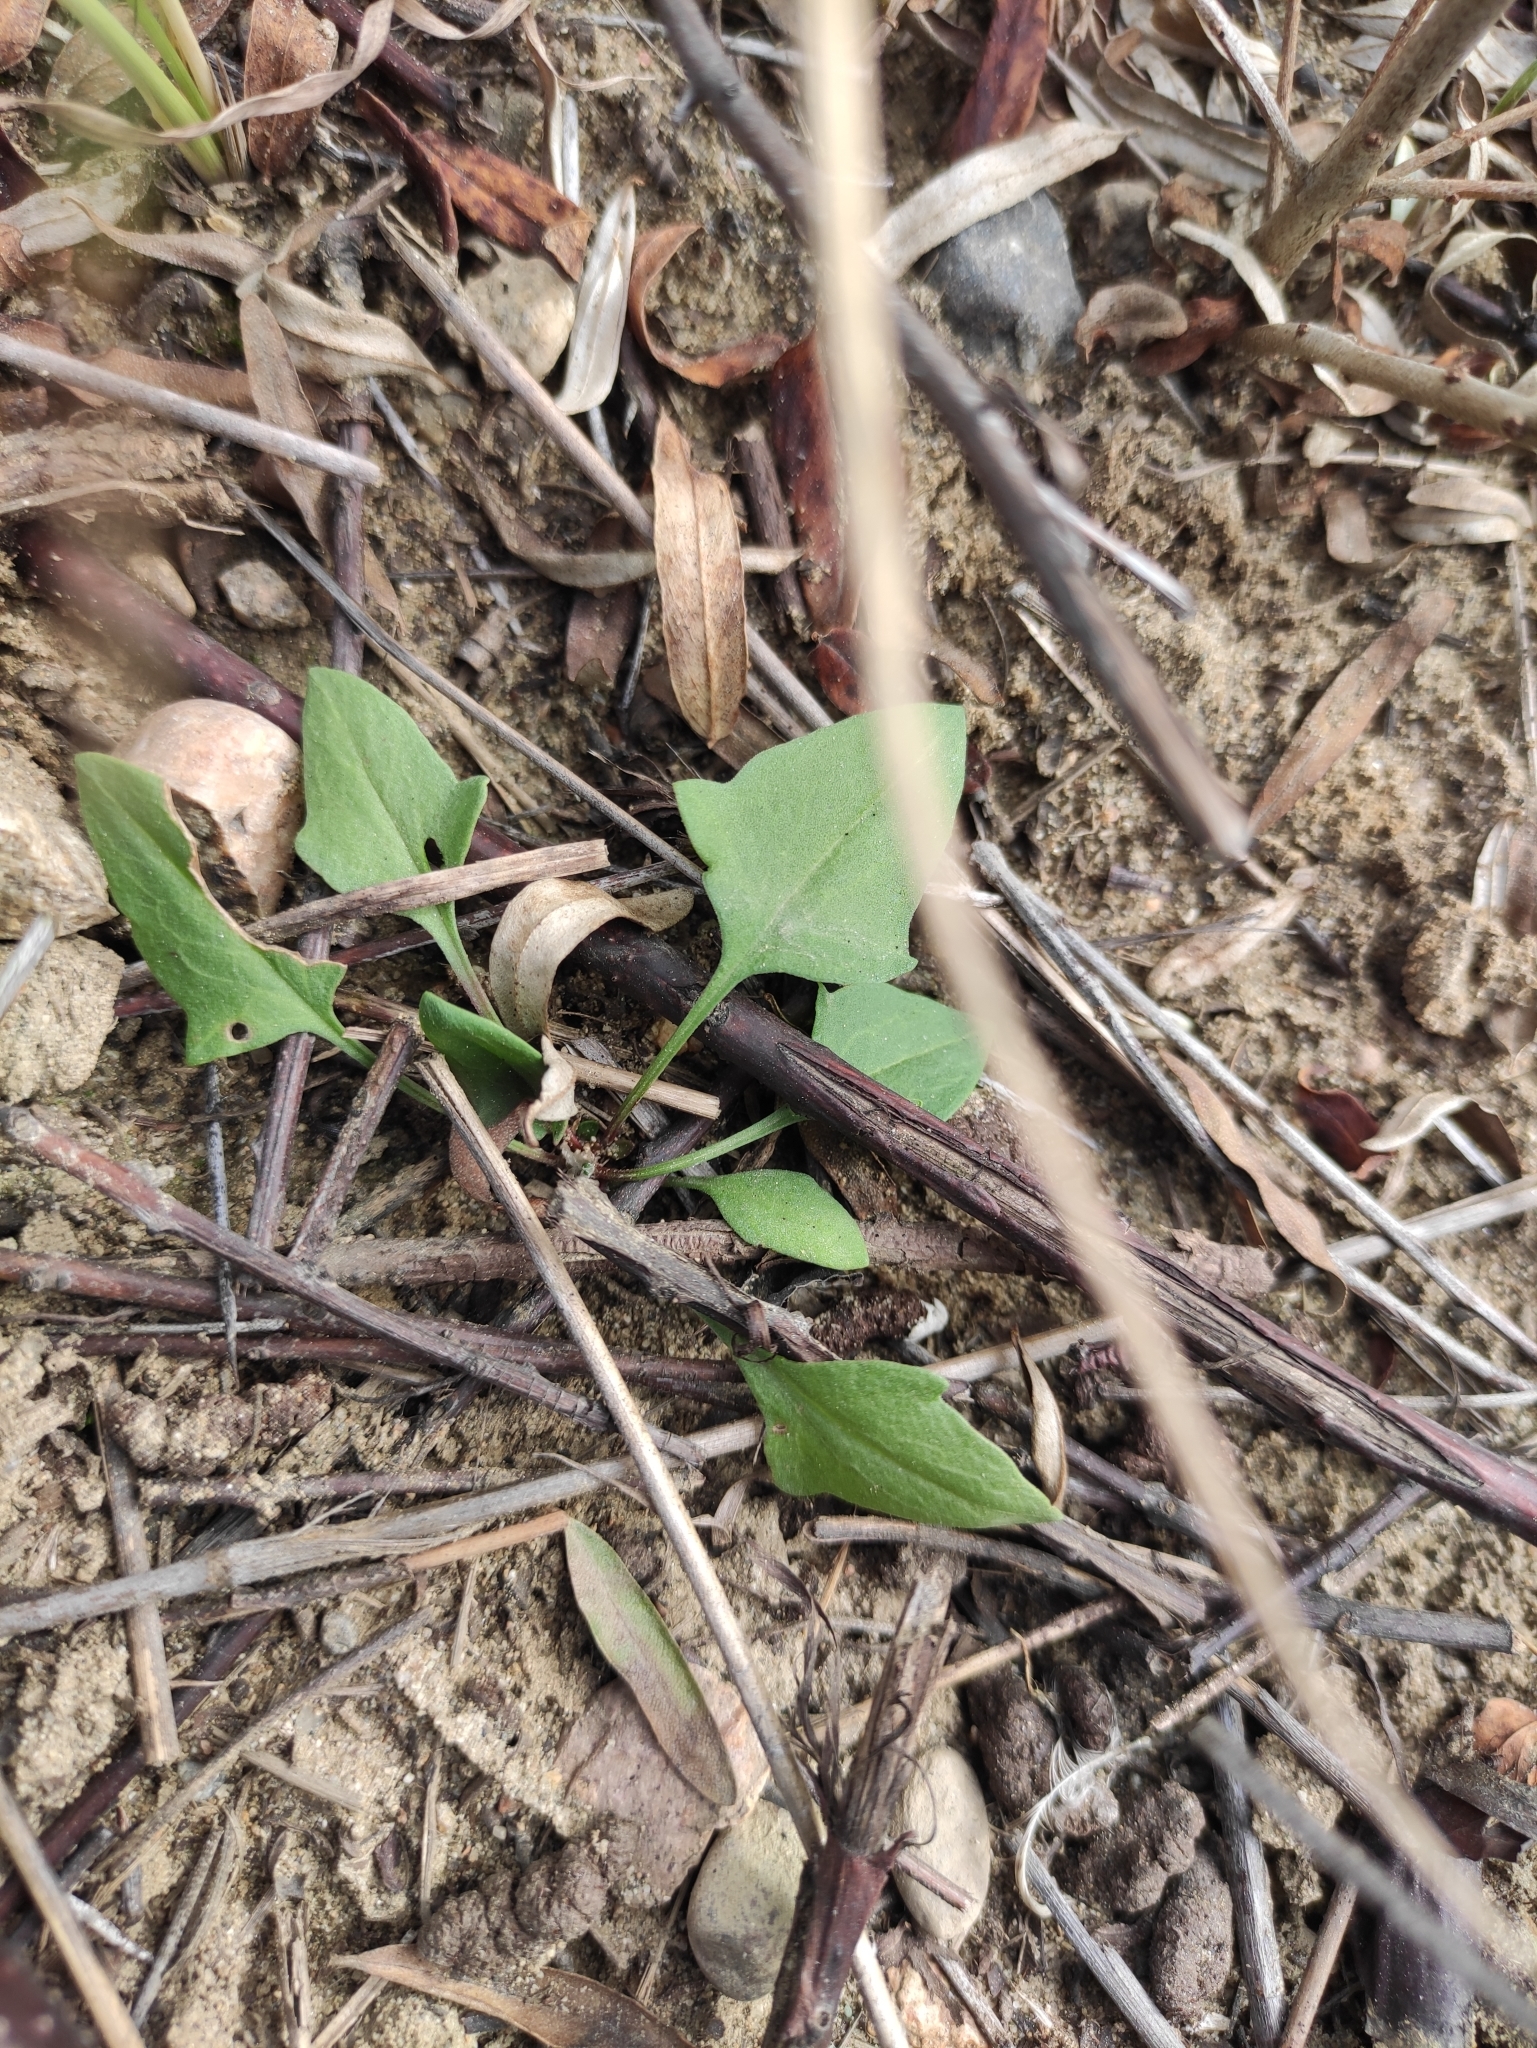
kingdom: Plantae
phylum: Tracheophyta
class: Magnoliopsida
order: Caryophyllales
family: Polygonaceae
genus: Rumex
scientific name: Rumex acetosella
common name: Common sheep sorrel
